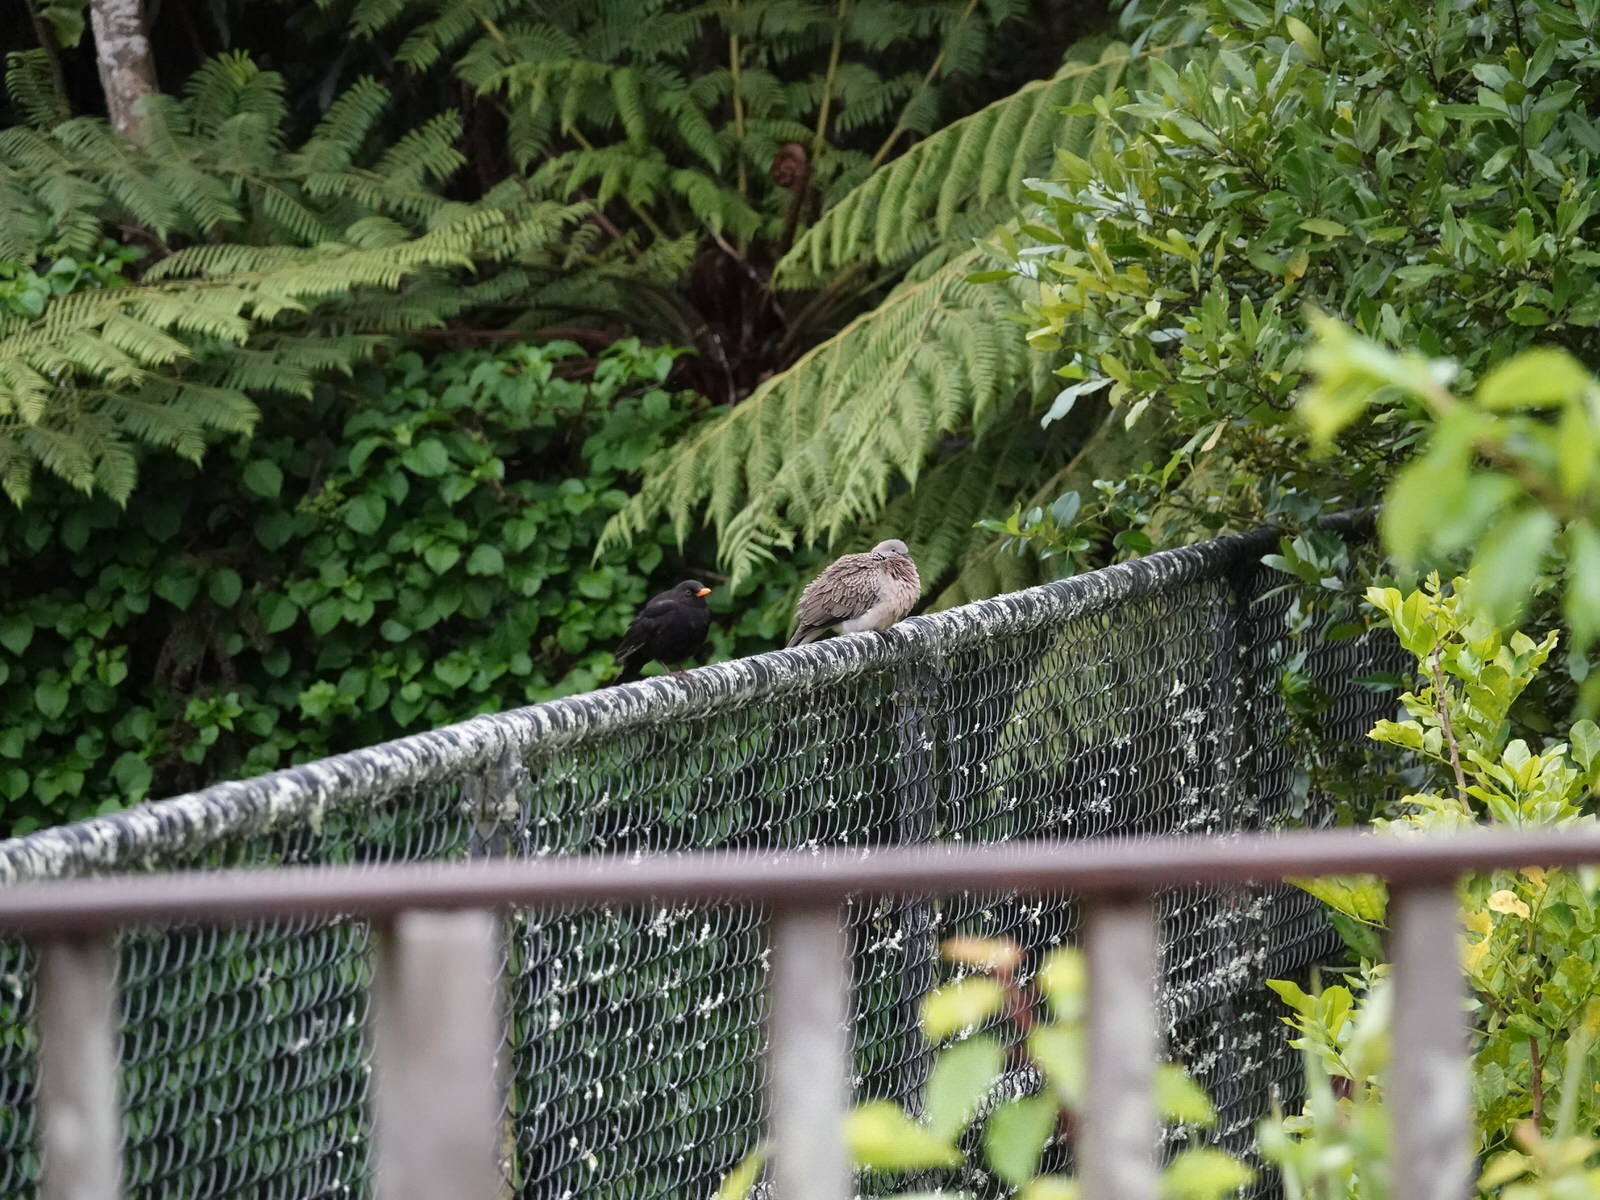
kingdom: Animalia
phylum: Chordata
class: Aves
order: Columbiformes
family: Columbidae
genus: Spilopelia
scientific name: Spilopelia chinensis
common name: Spotted dove
